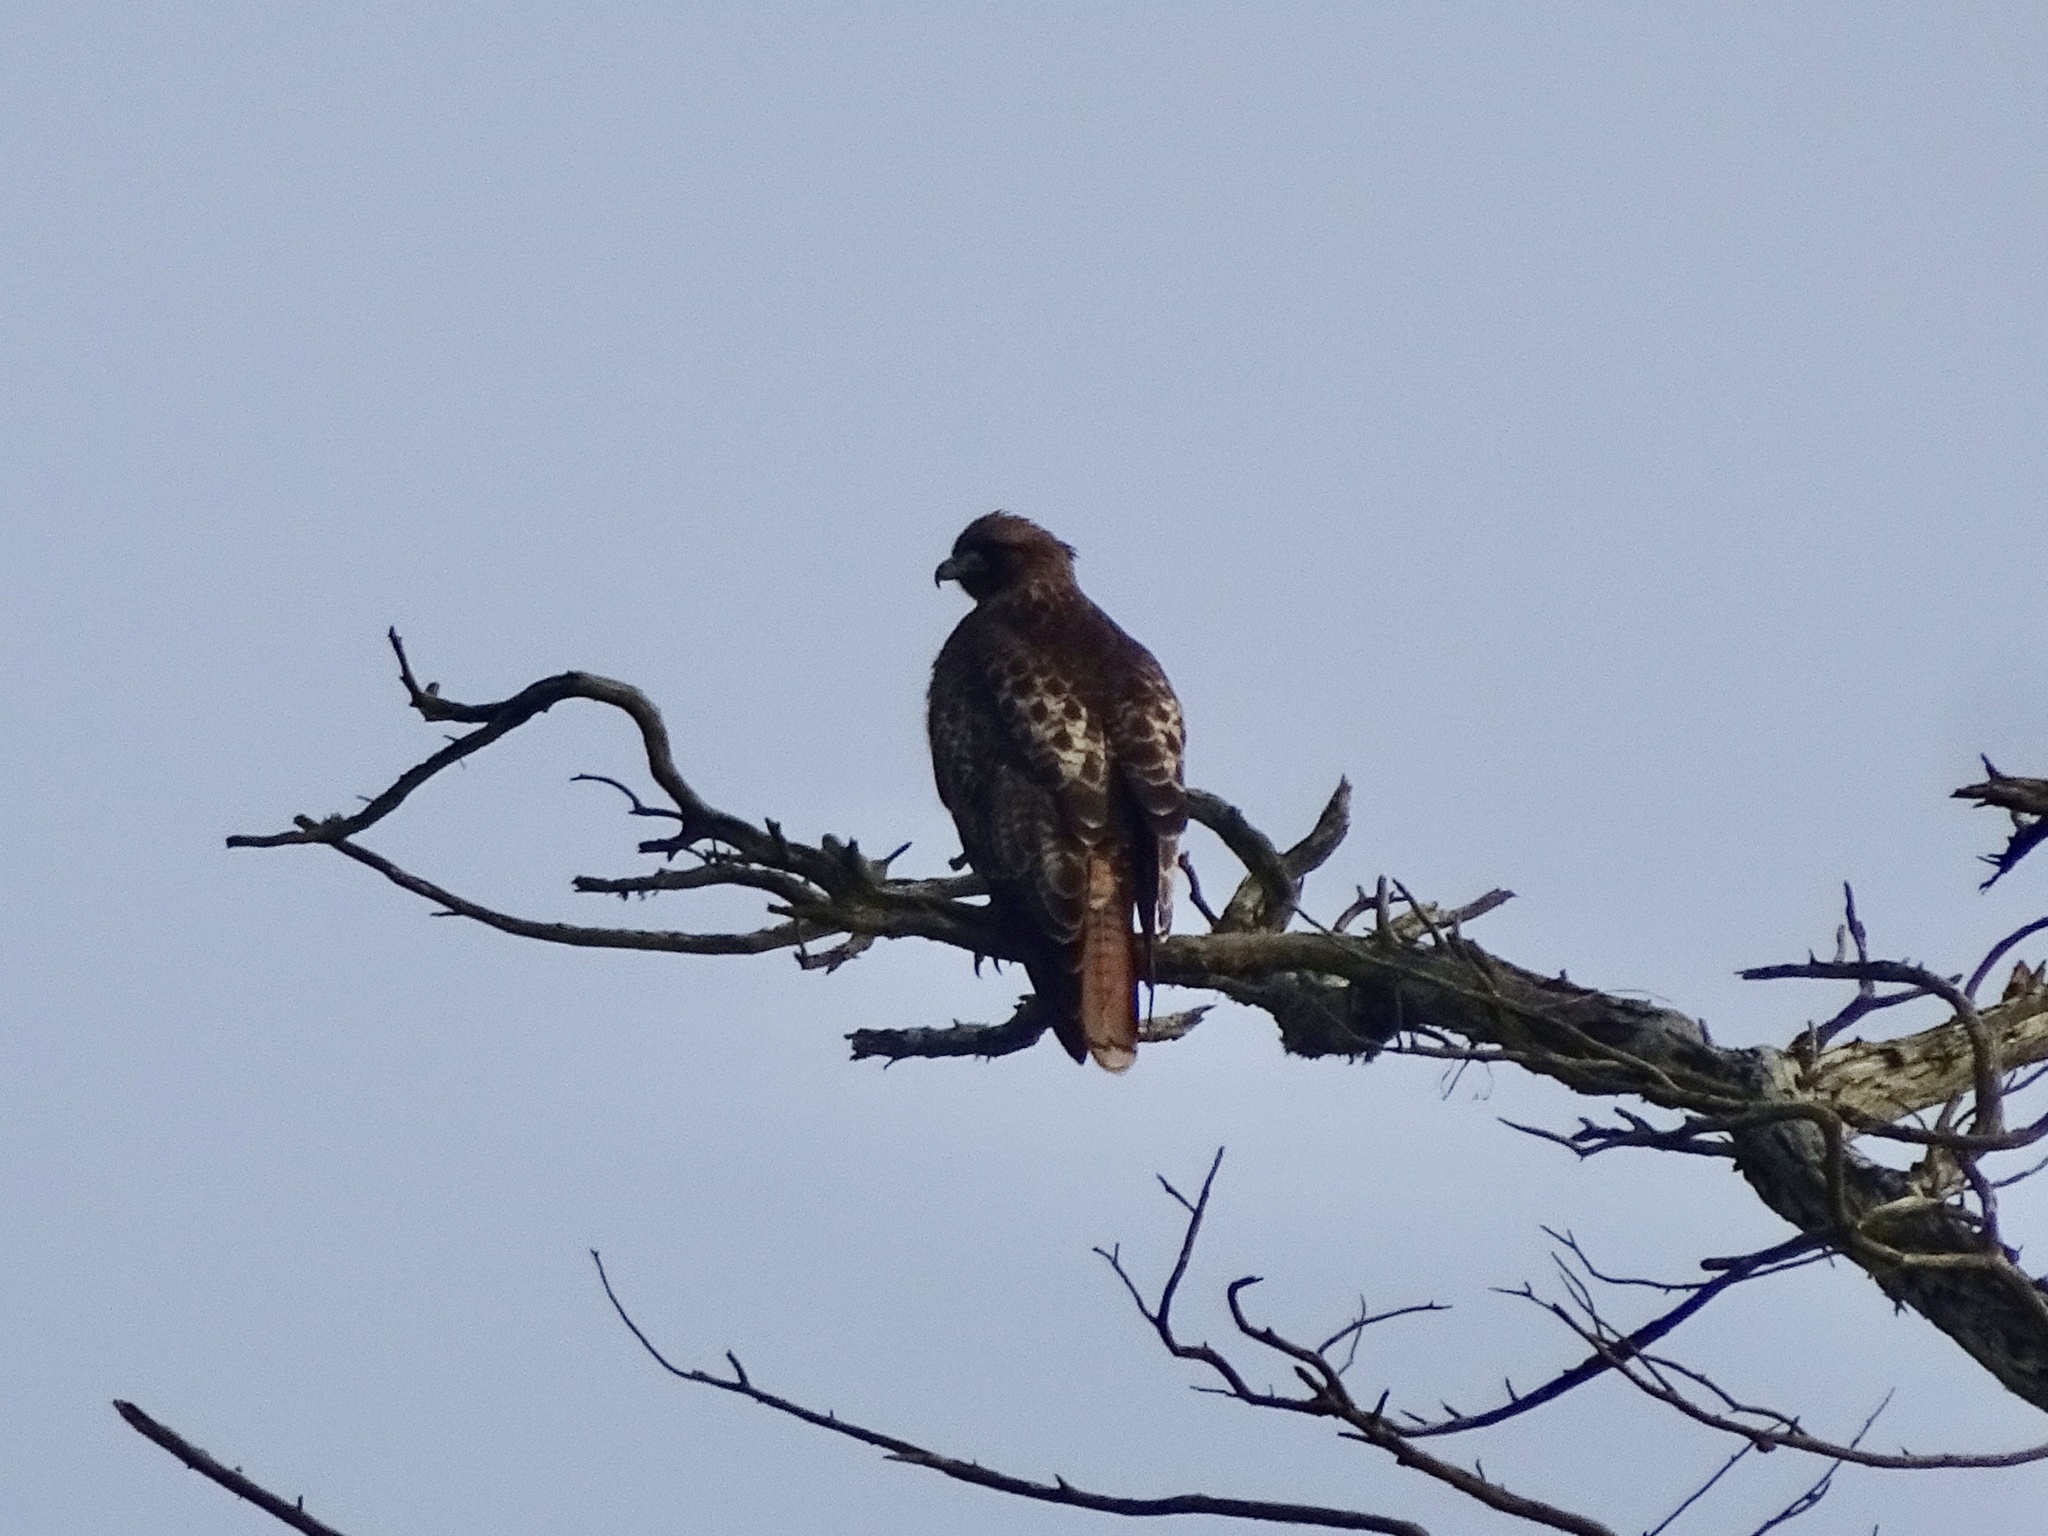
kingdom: Animalia
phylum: Chordata
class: Aves
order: Accipitriformes
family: Accipitridae
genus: Buteo
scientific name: Buteo jamaicensis
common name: Red-tailed hawk
